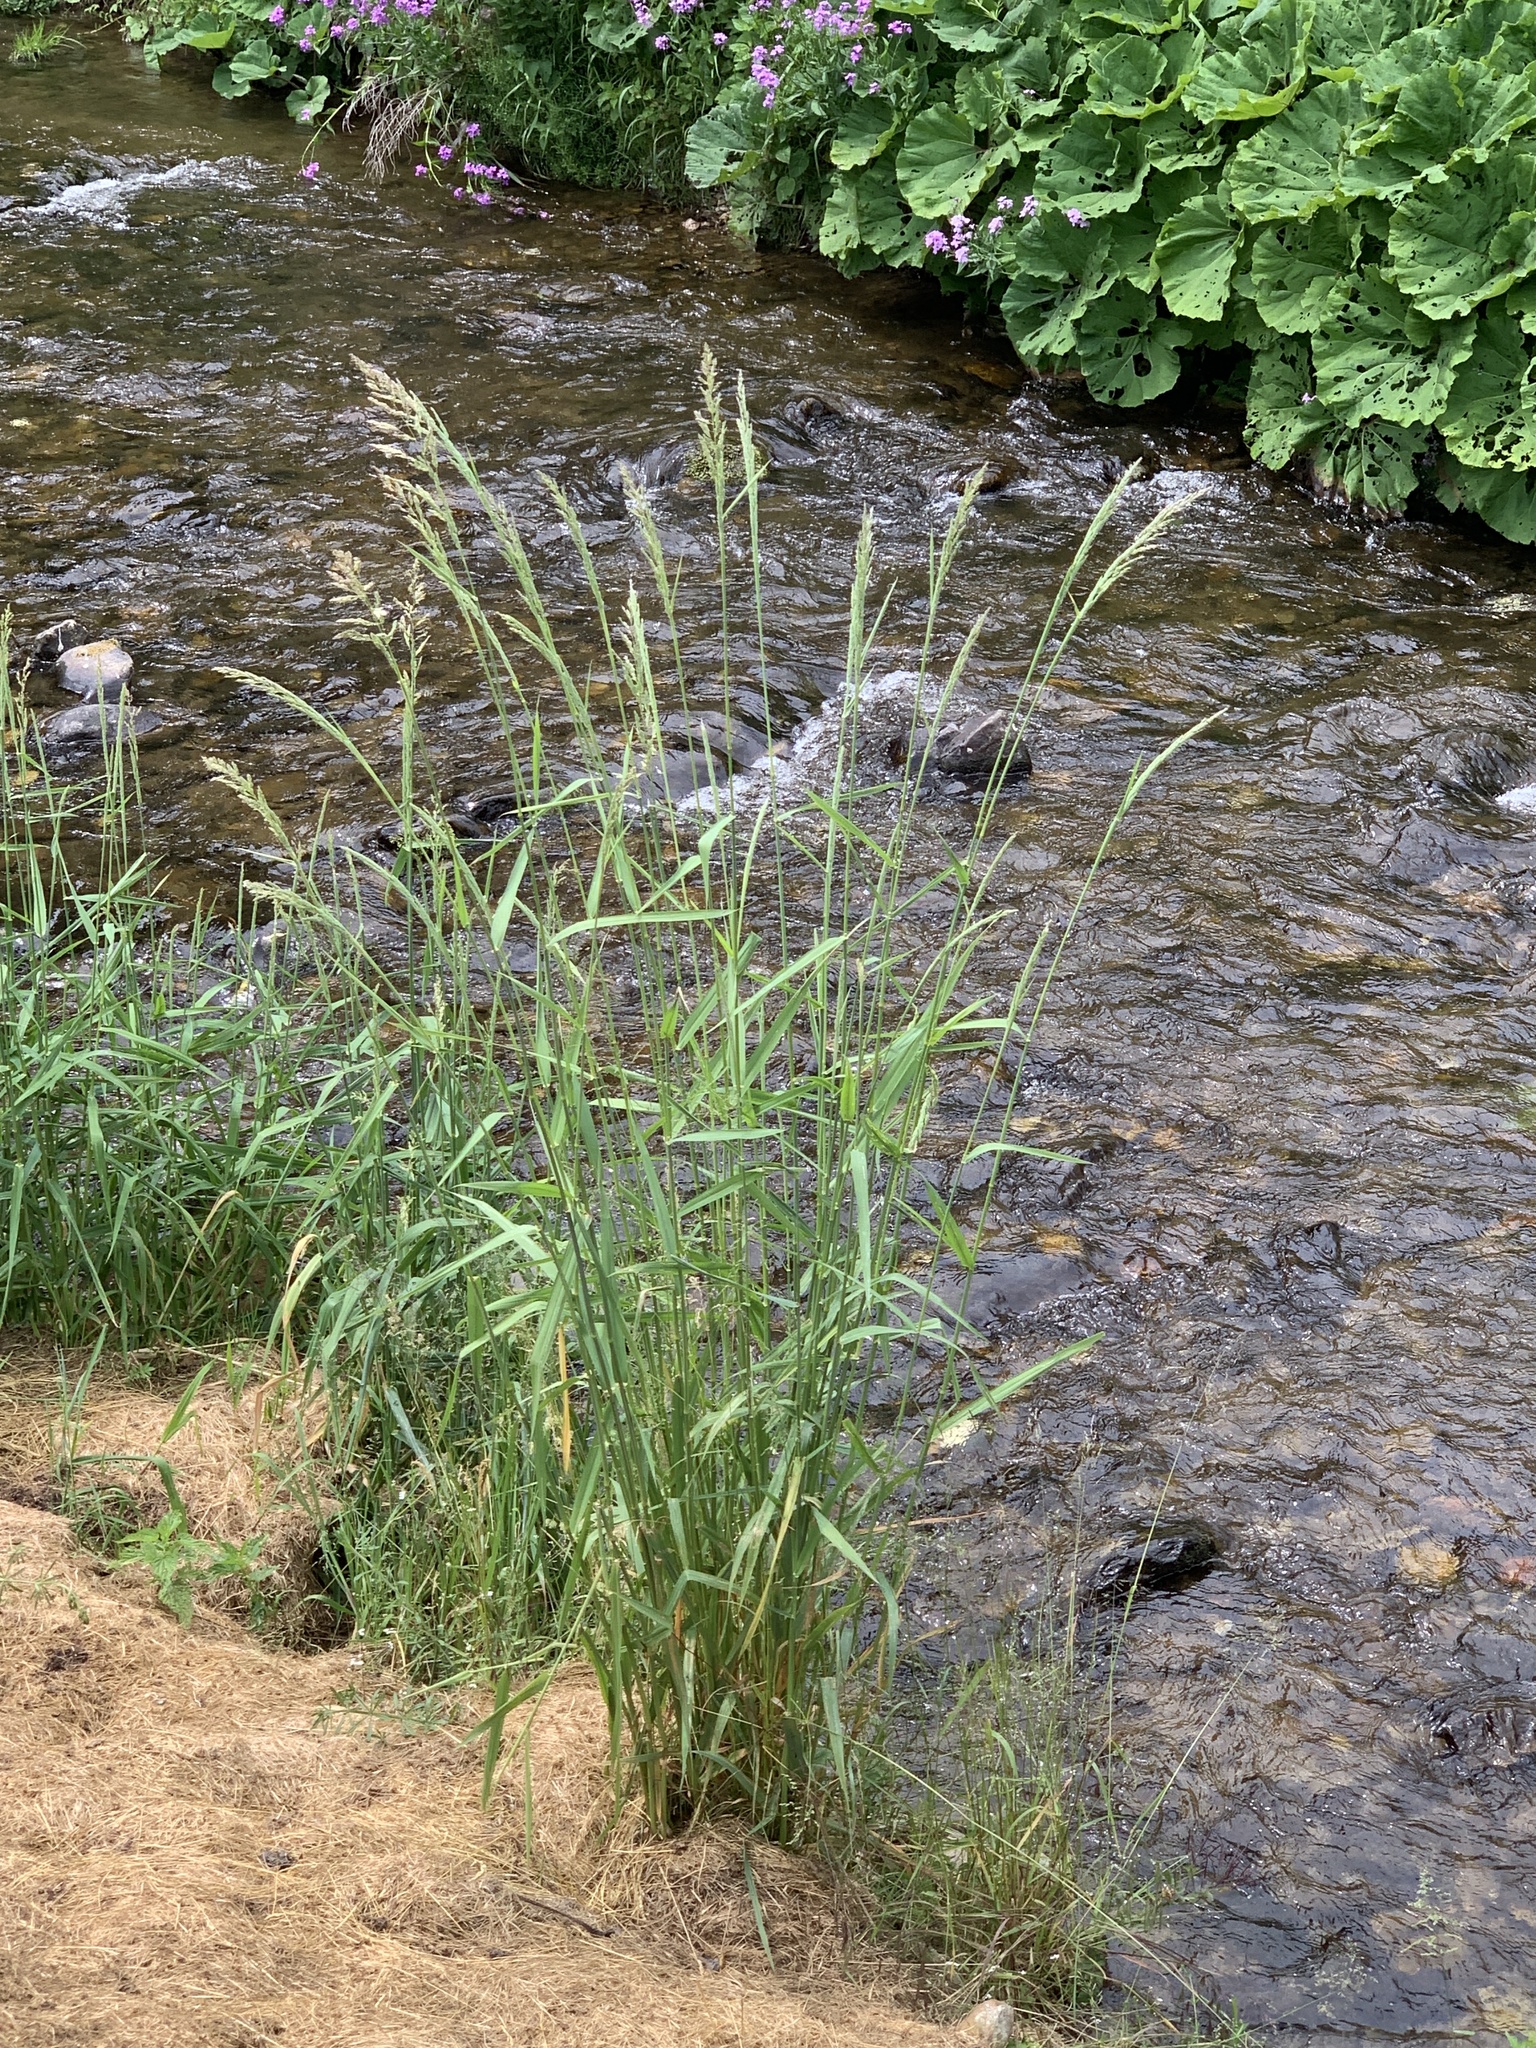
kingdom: Plantae
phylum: Tracheophyta
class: Liliopsida
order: Poales
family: Poaceae
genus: Phalaris
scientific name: Phalaris arundinacea
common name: Reed canary-grass
